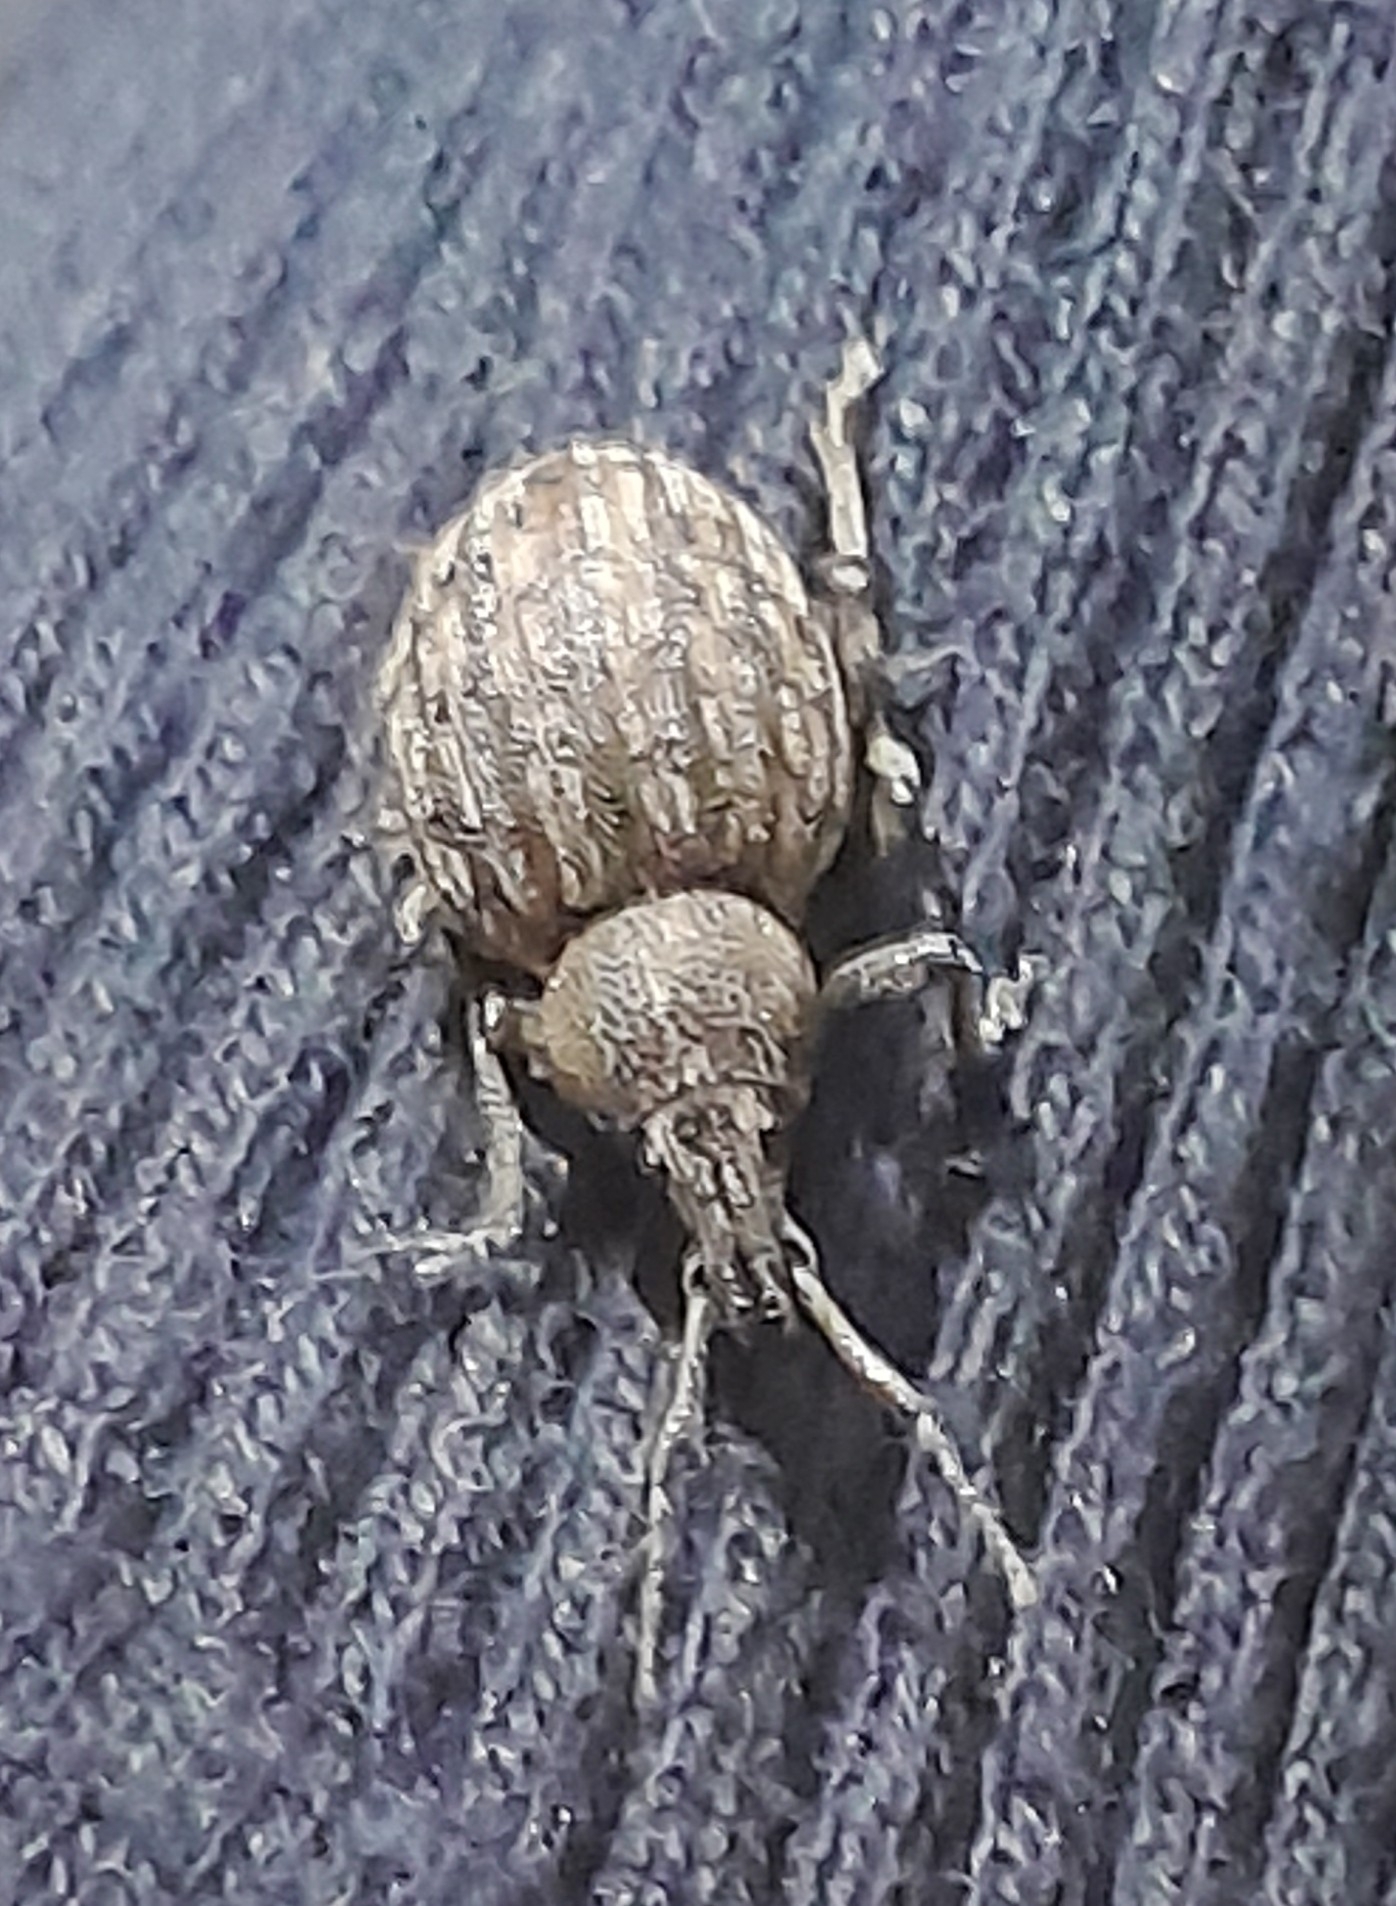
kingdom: Animalia
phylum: Arthropoda
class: Insecta
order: Coleoptera
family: Curculionidae
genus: Otiorhynchus
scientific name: Otiorhynchus ligustici
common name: Weevil
